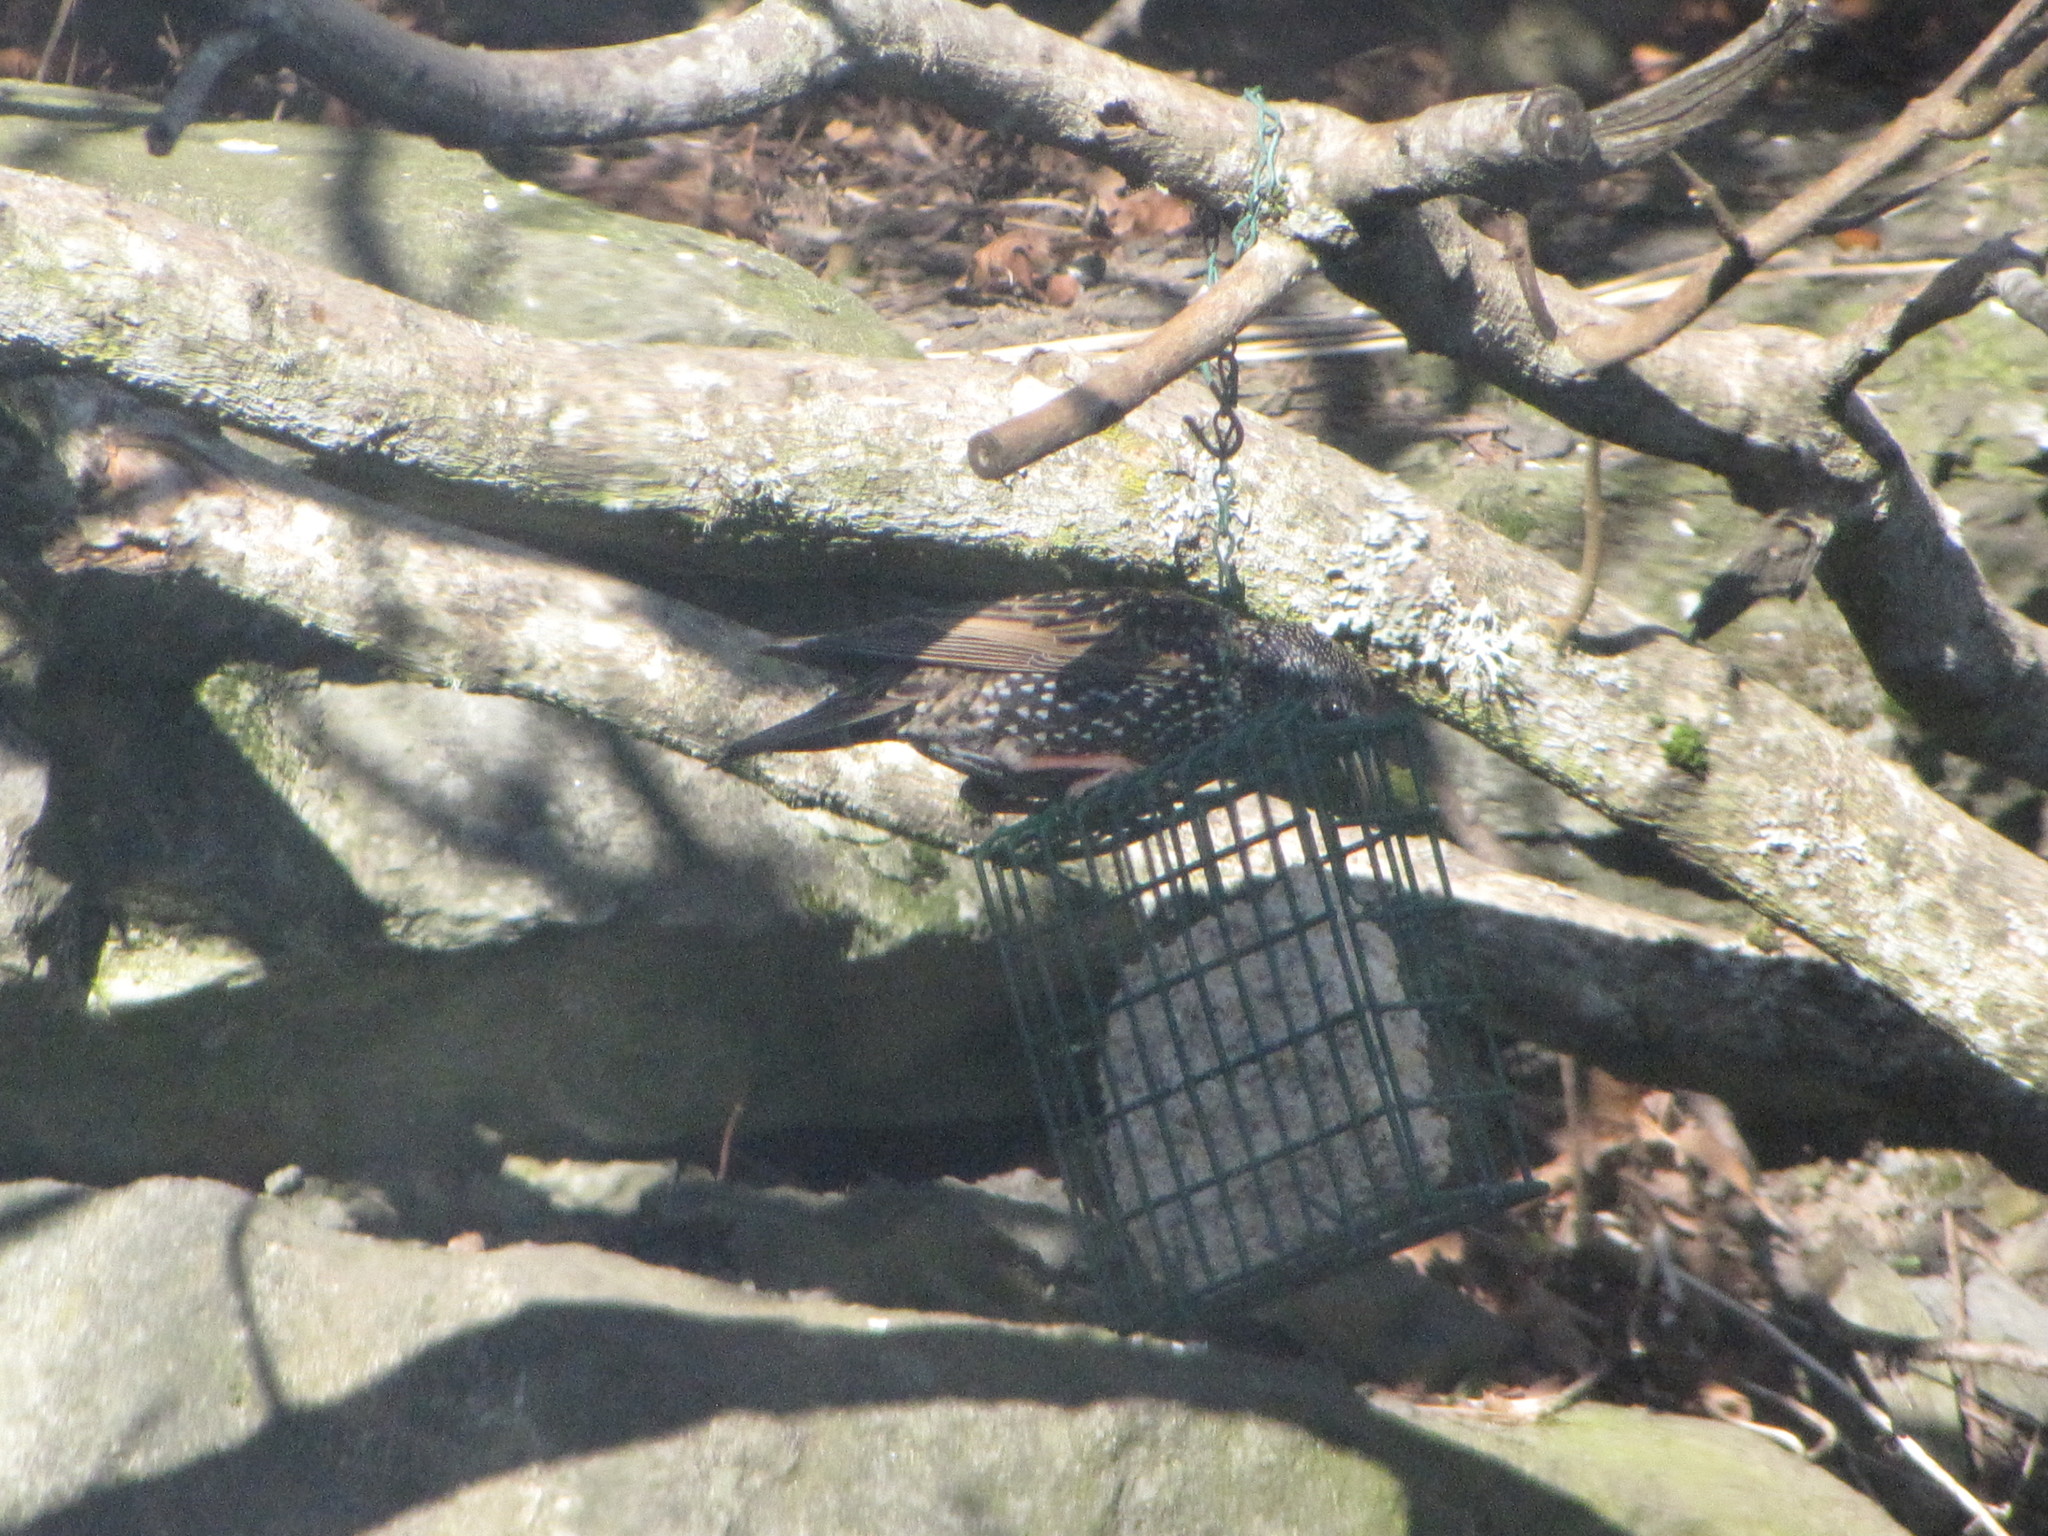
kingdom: Animalia
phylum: Chordata
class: Aves
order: Passeriformes
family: Sturnidae
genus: Sturnus
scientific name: Sturnus vulgaris
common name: Common starling
